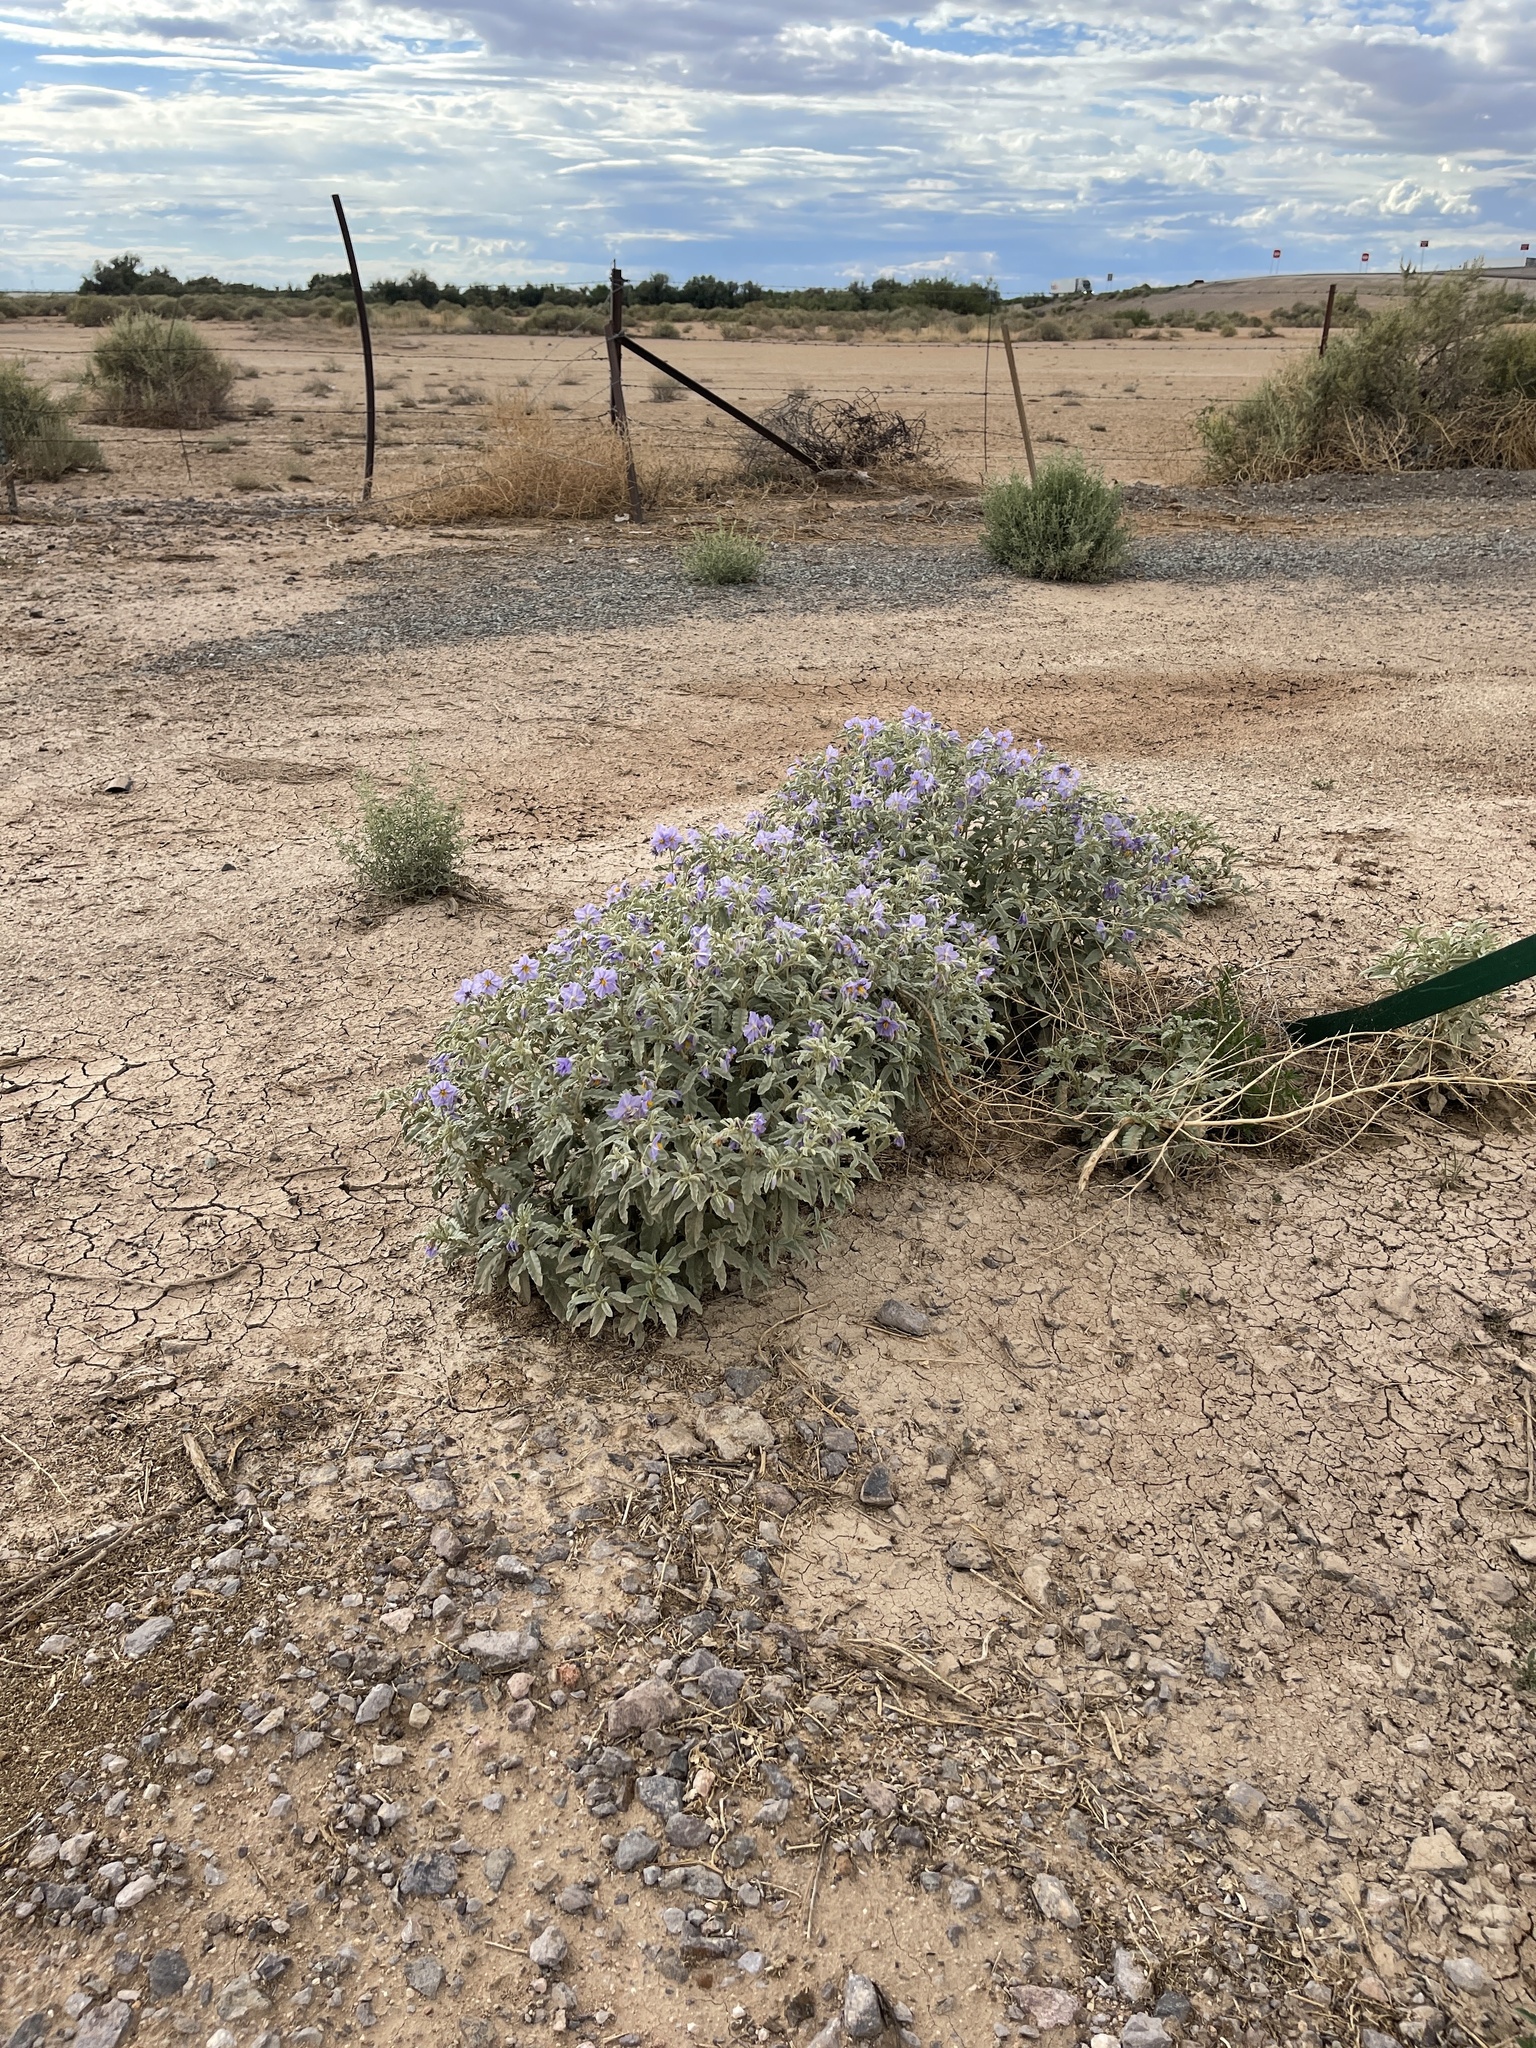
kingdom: Plantae
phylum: Tracheophyta
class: Magnoliopsida
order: Solanales
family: Solanaceae
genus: Solanum
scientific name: Solanum elaeagnifolium
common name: Silverleaf nightshade
